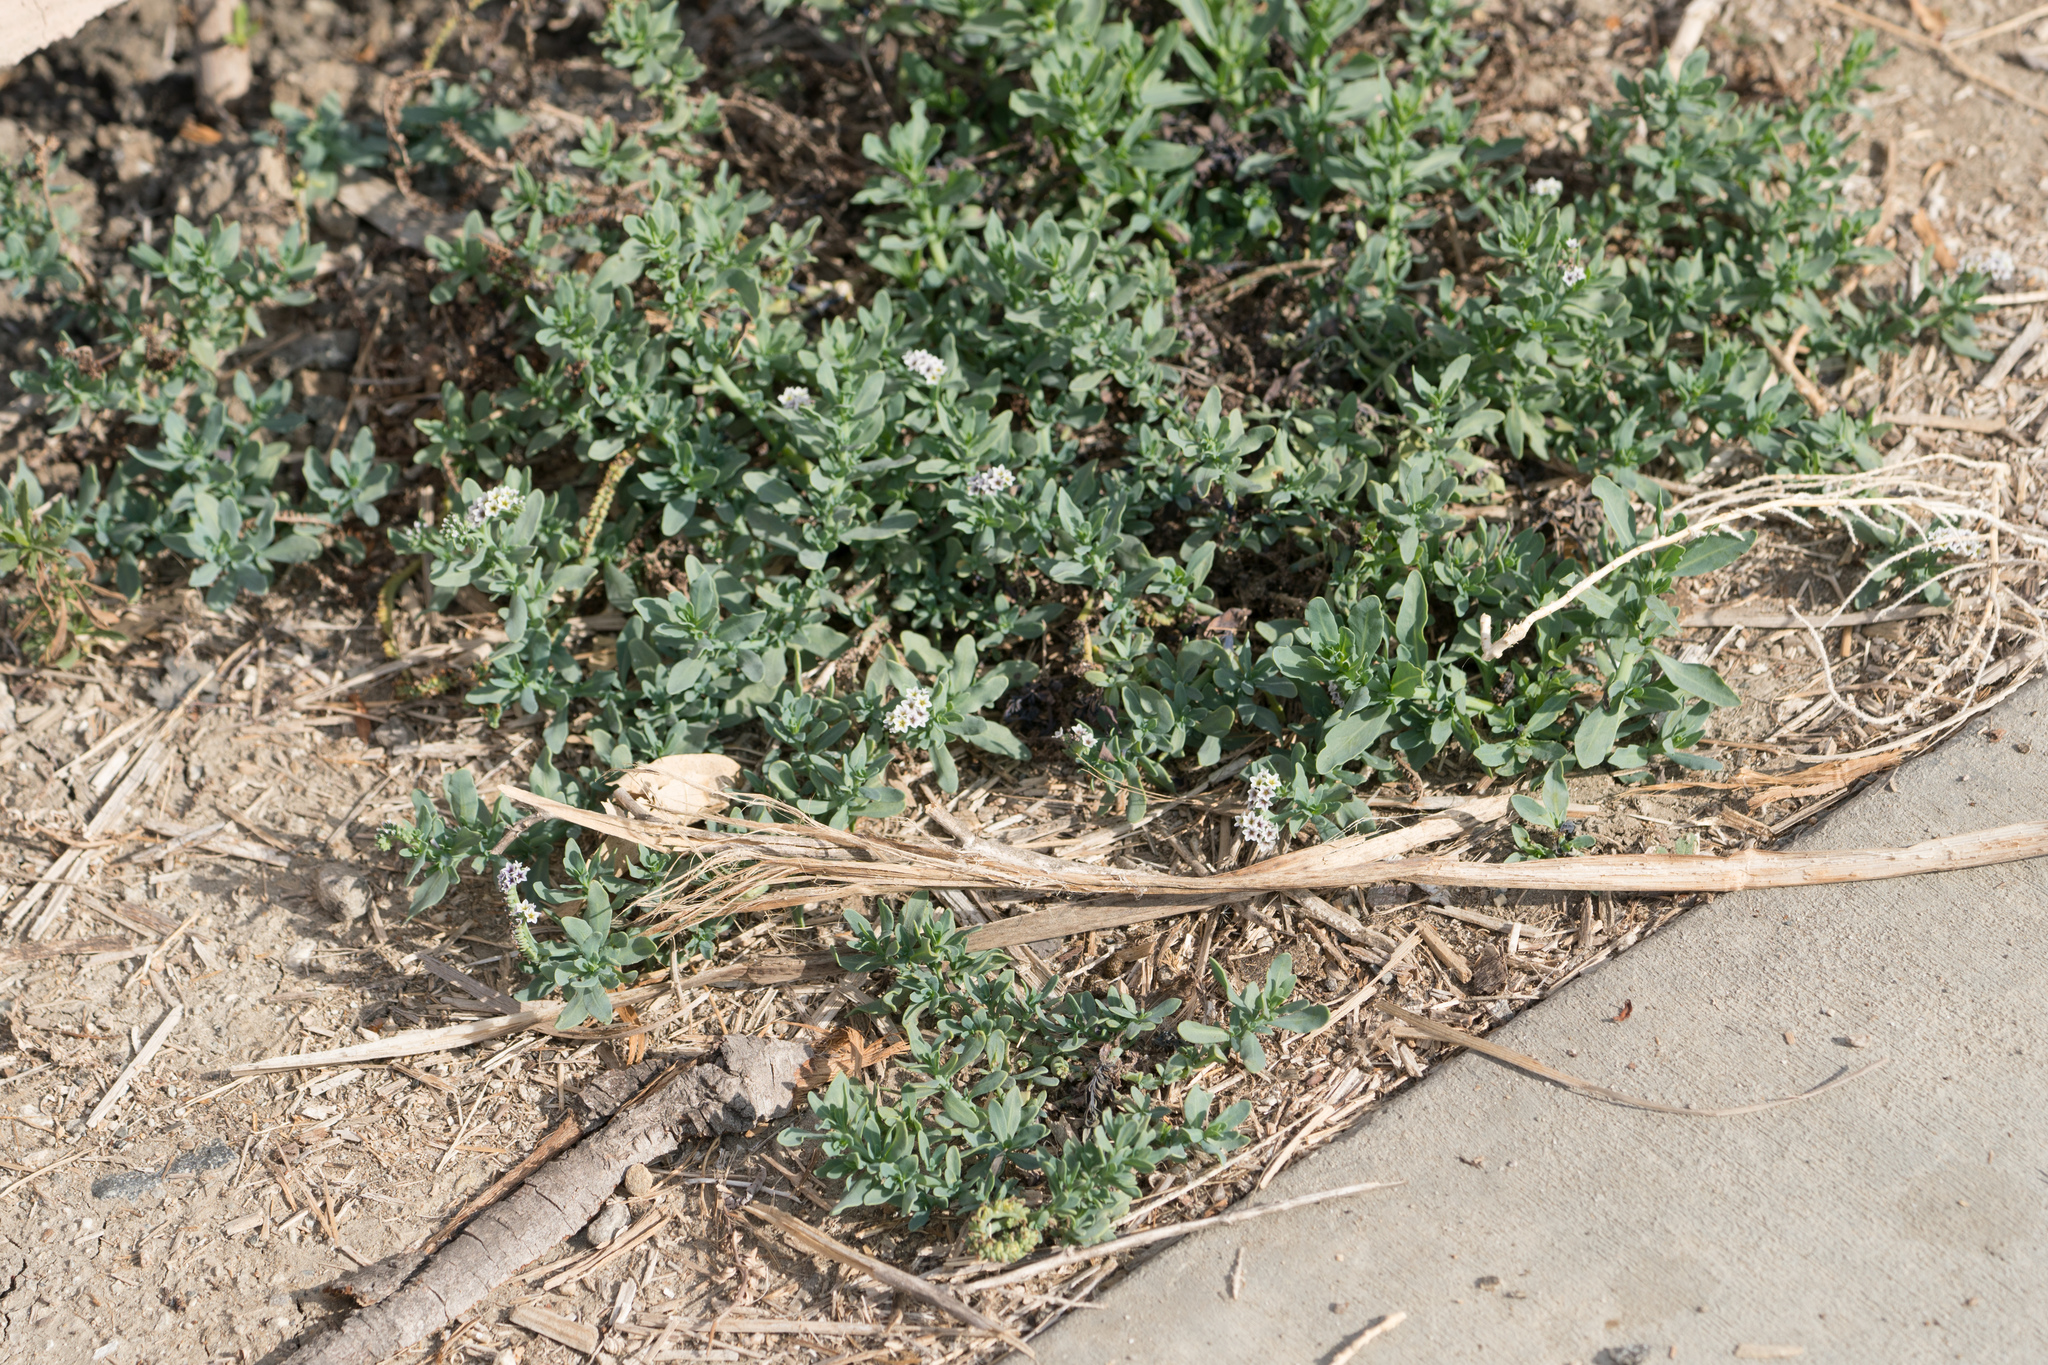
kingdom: Plantae
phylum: Tracheophyta
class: Magnoliopsida
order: Boraginales
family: Heliotropiaceae
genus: Heliotropium
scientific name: Heliotropium curassavicum
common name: Seaside heliotrope
